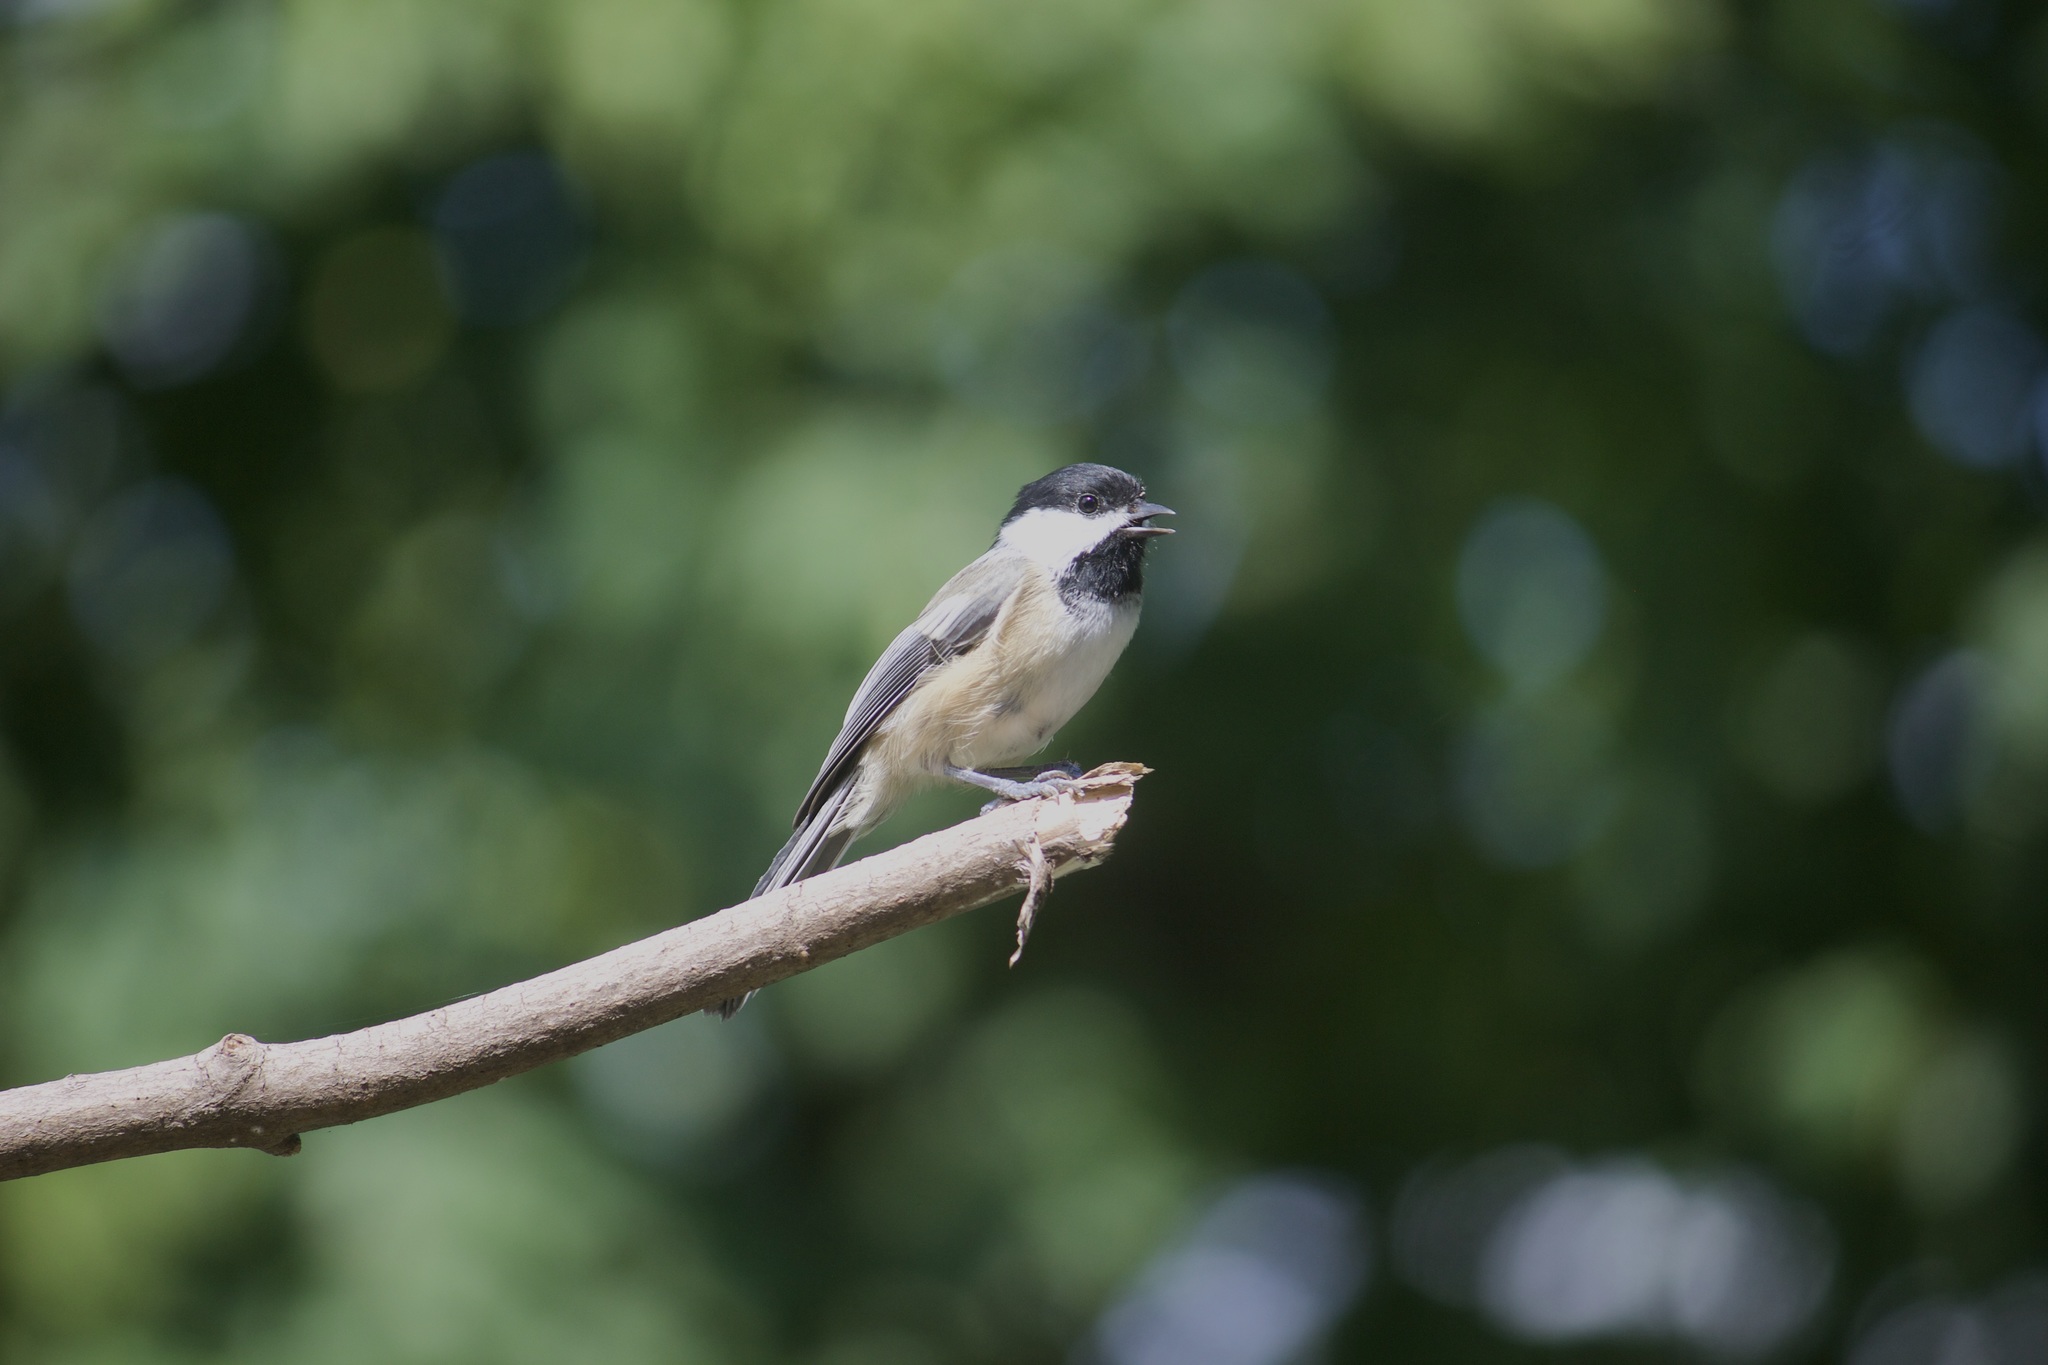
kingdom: Animalia
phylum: Chordata
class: Aves
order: Passeriformes
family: Paridae
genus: Poecile
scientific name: Poecile atricapillus
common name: Black-capped chickadee
